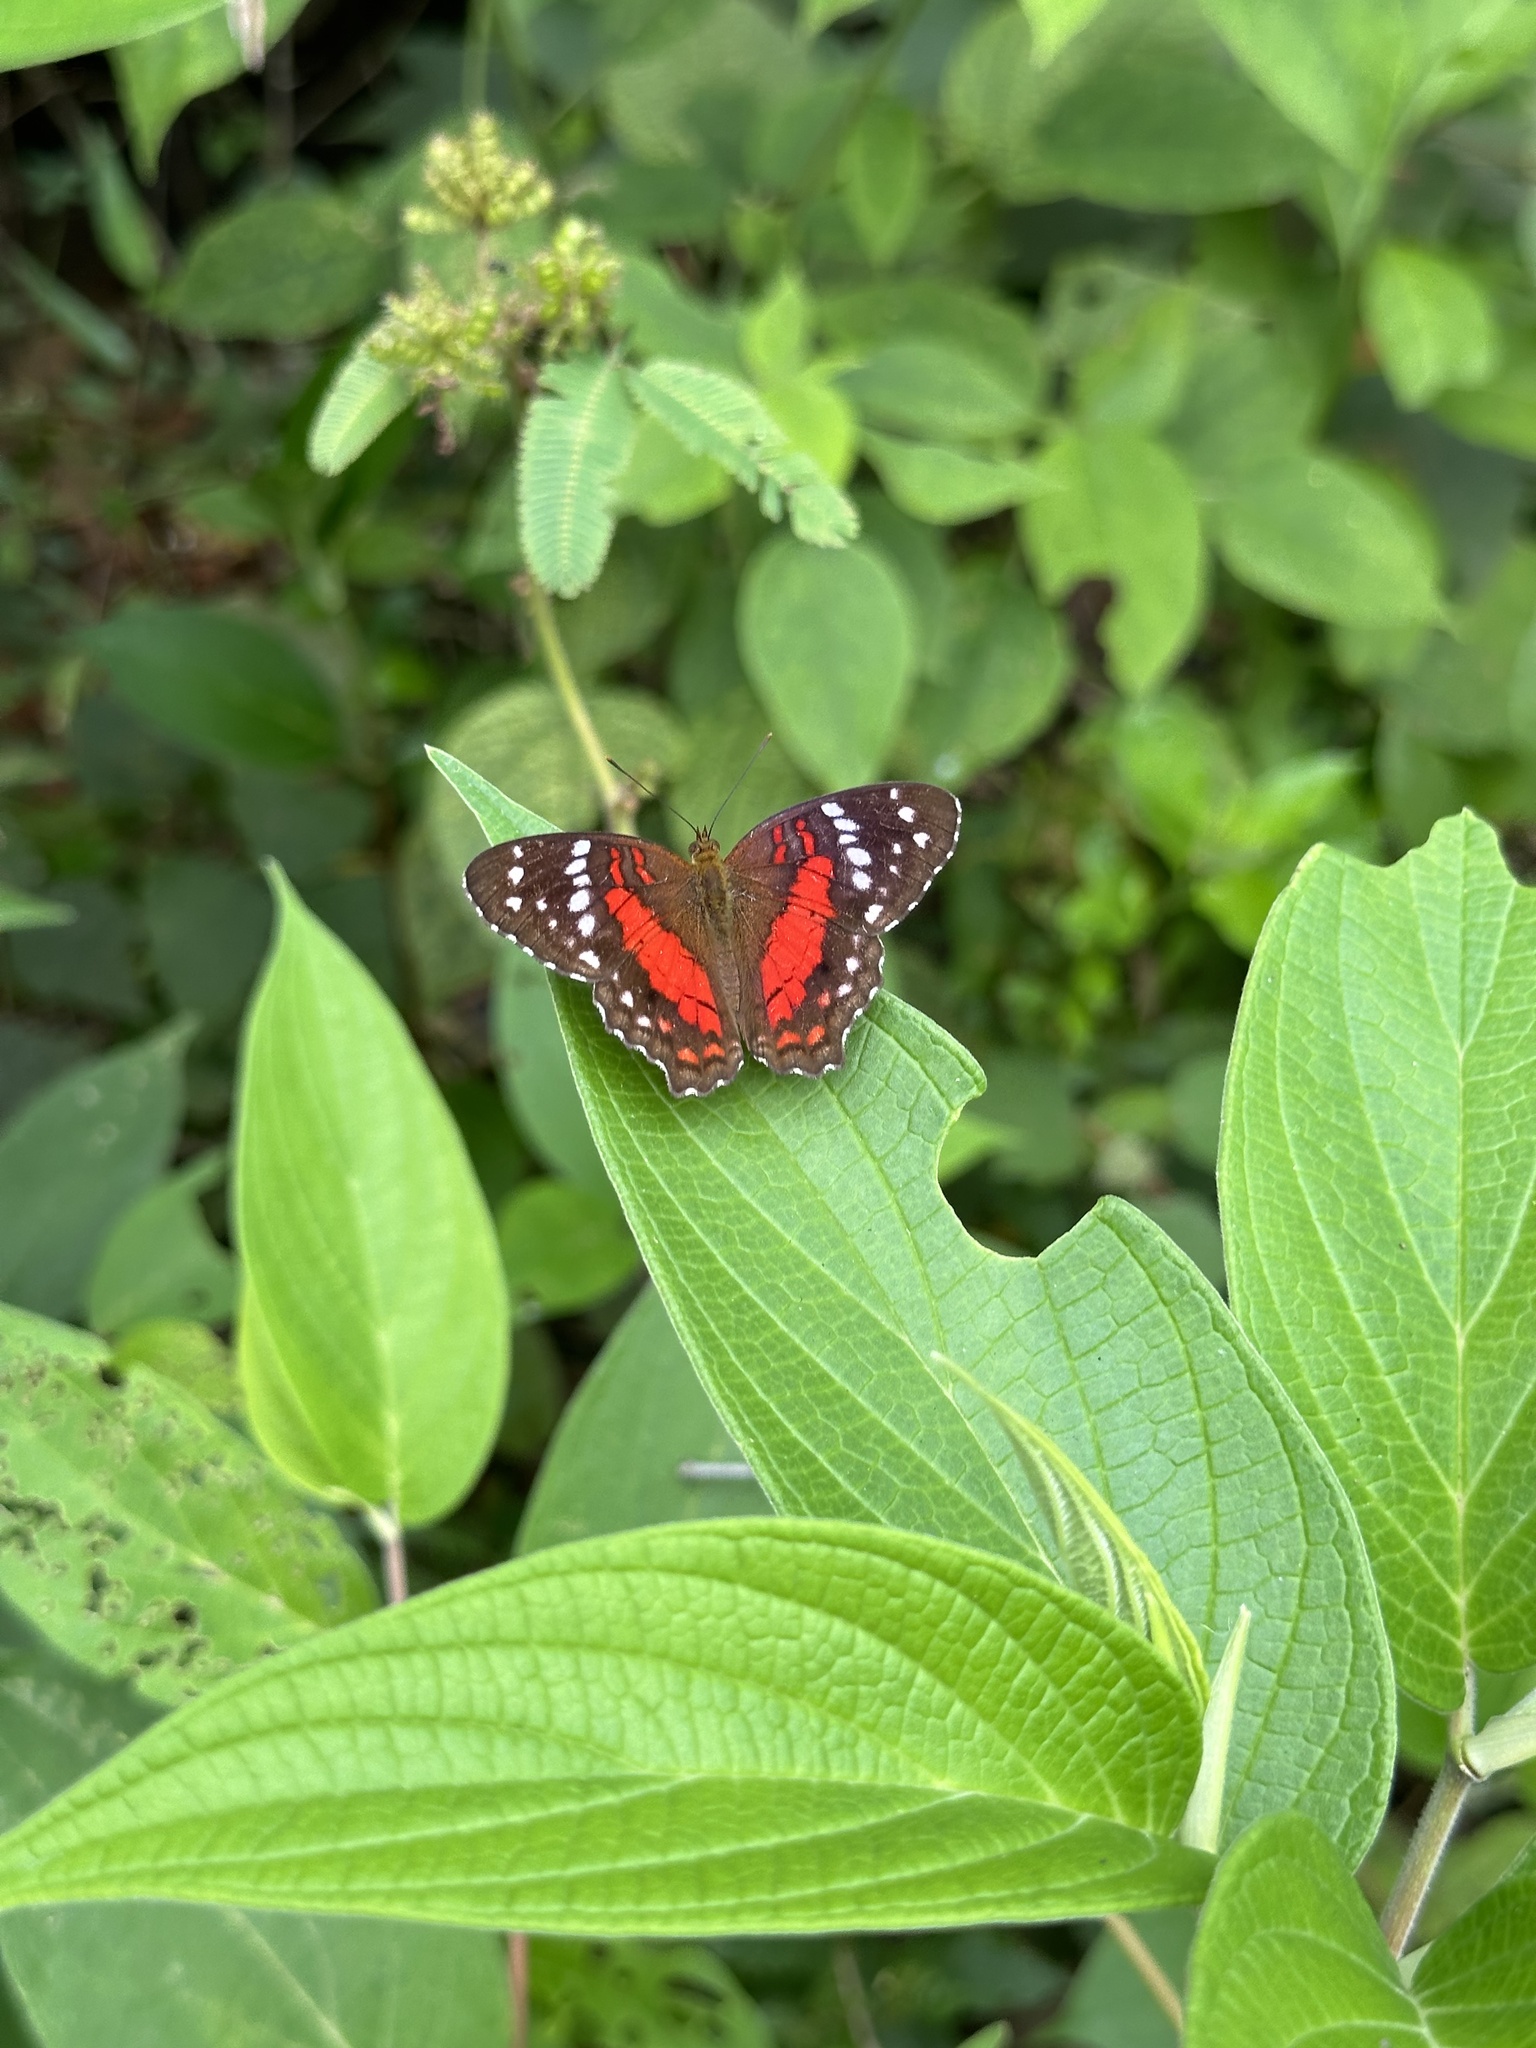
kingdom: Animalia
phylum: Arthropoda
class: Insecta
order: Lepidoptera
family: Nymphalidae
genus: Anartia
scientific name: Anartia amathea
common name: Red peacock
